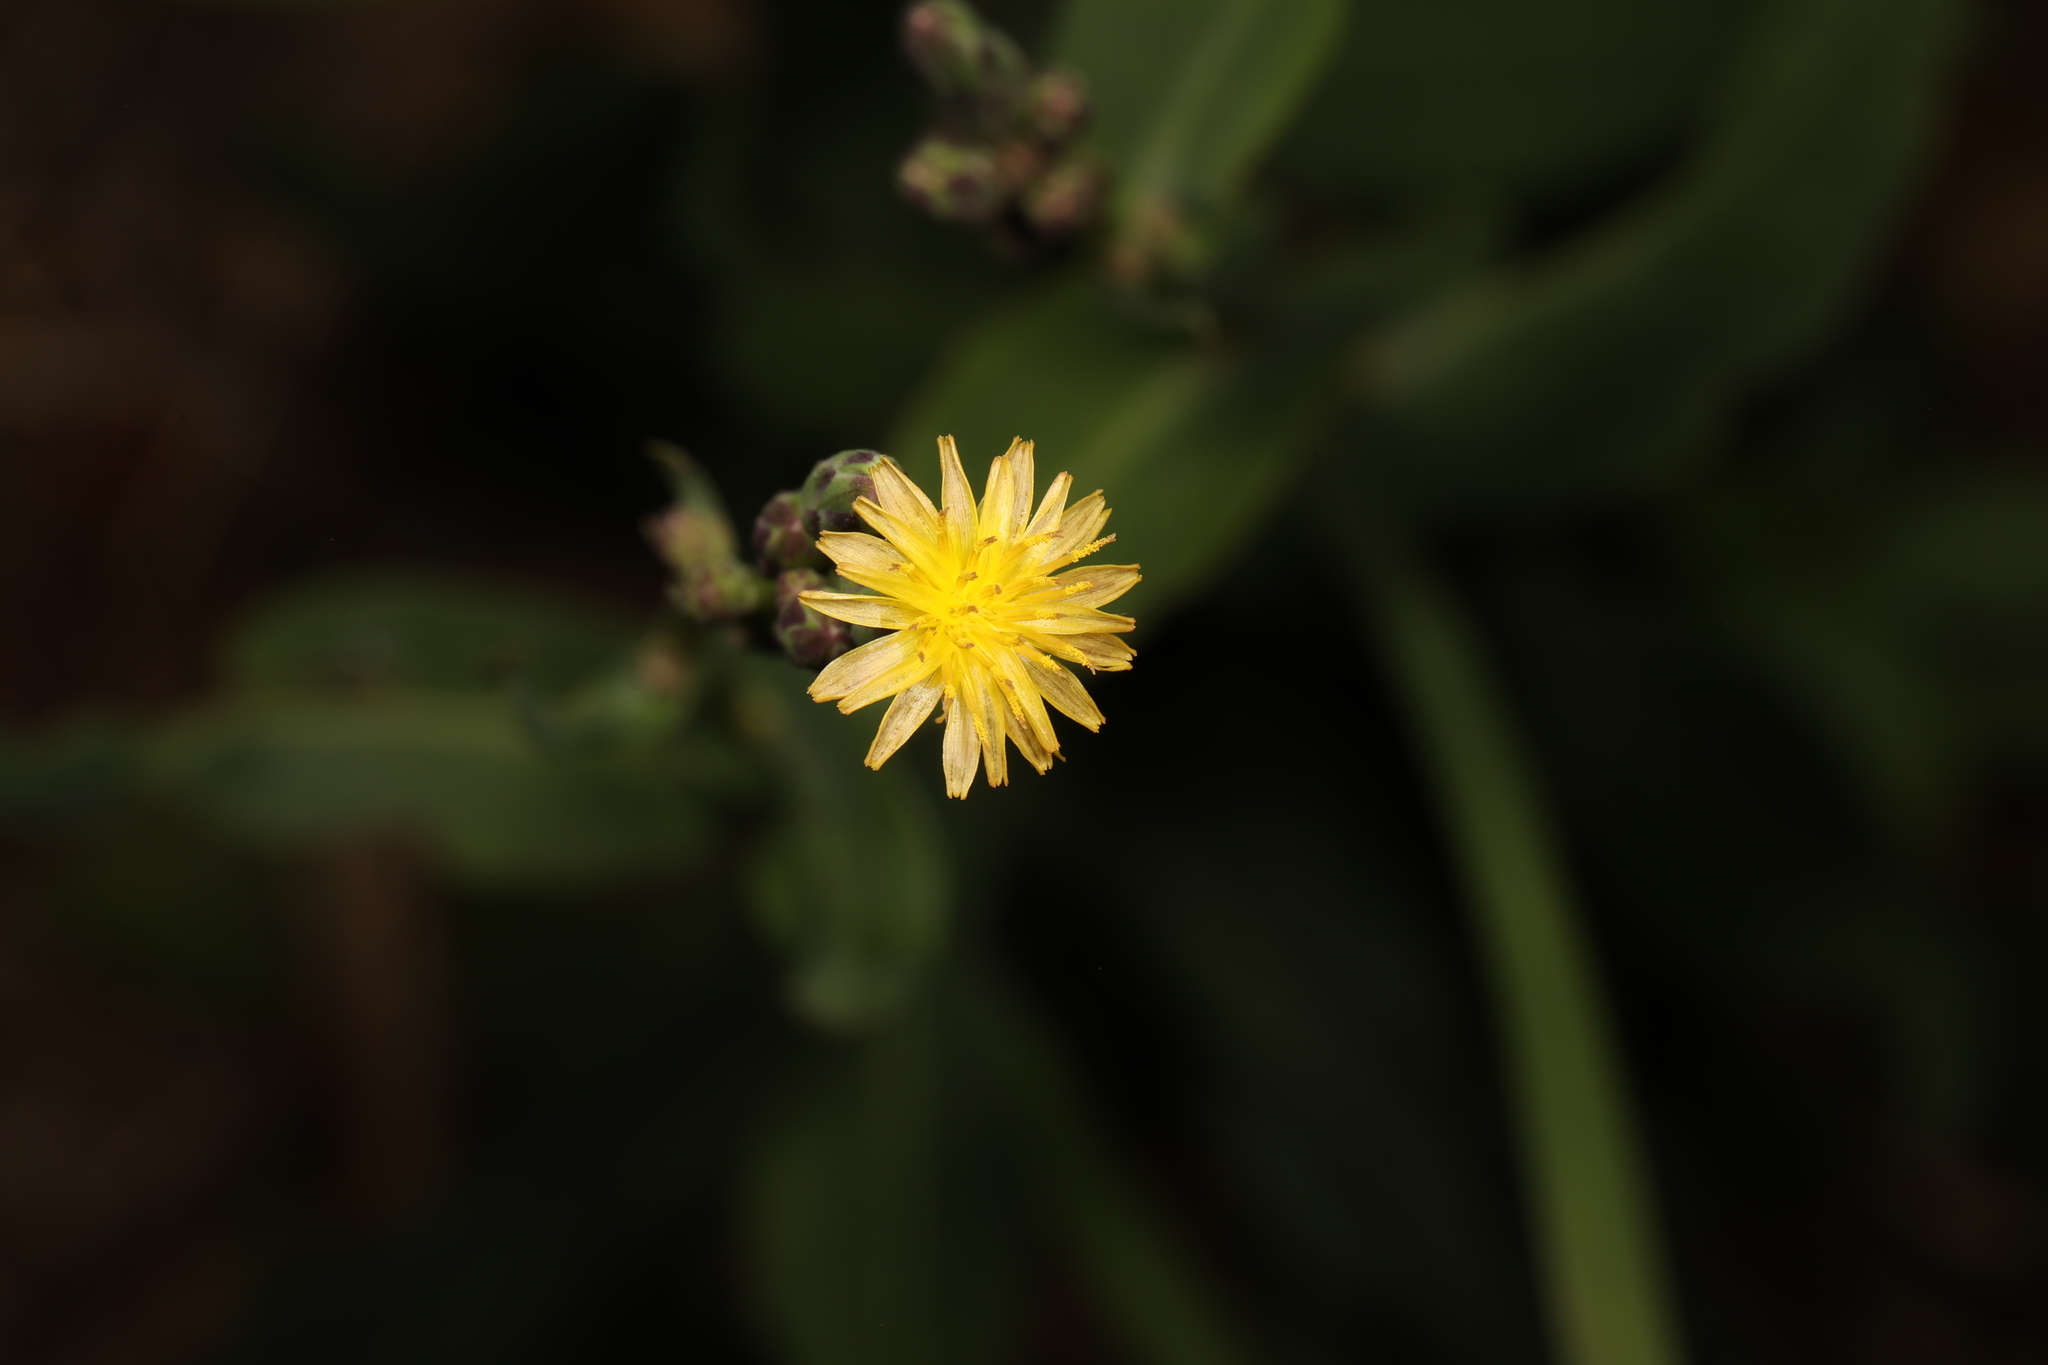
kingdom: Plantae
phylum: Tracheophyta
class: Magnoliopsida
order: Asterales
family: Asteraceae
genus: Lactuca
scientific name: Lactuca canadensis
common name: Canada lettuce
